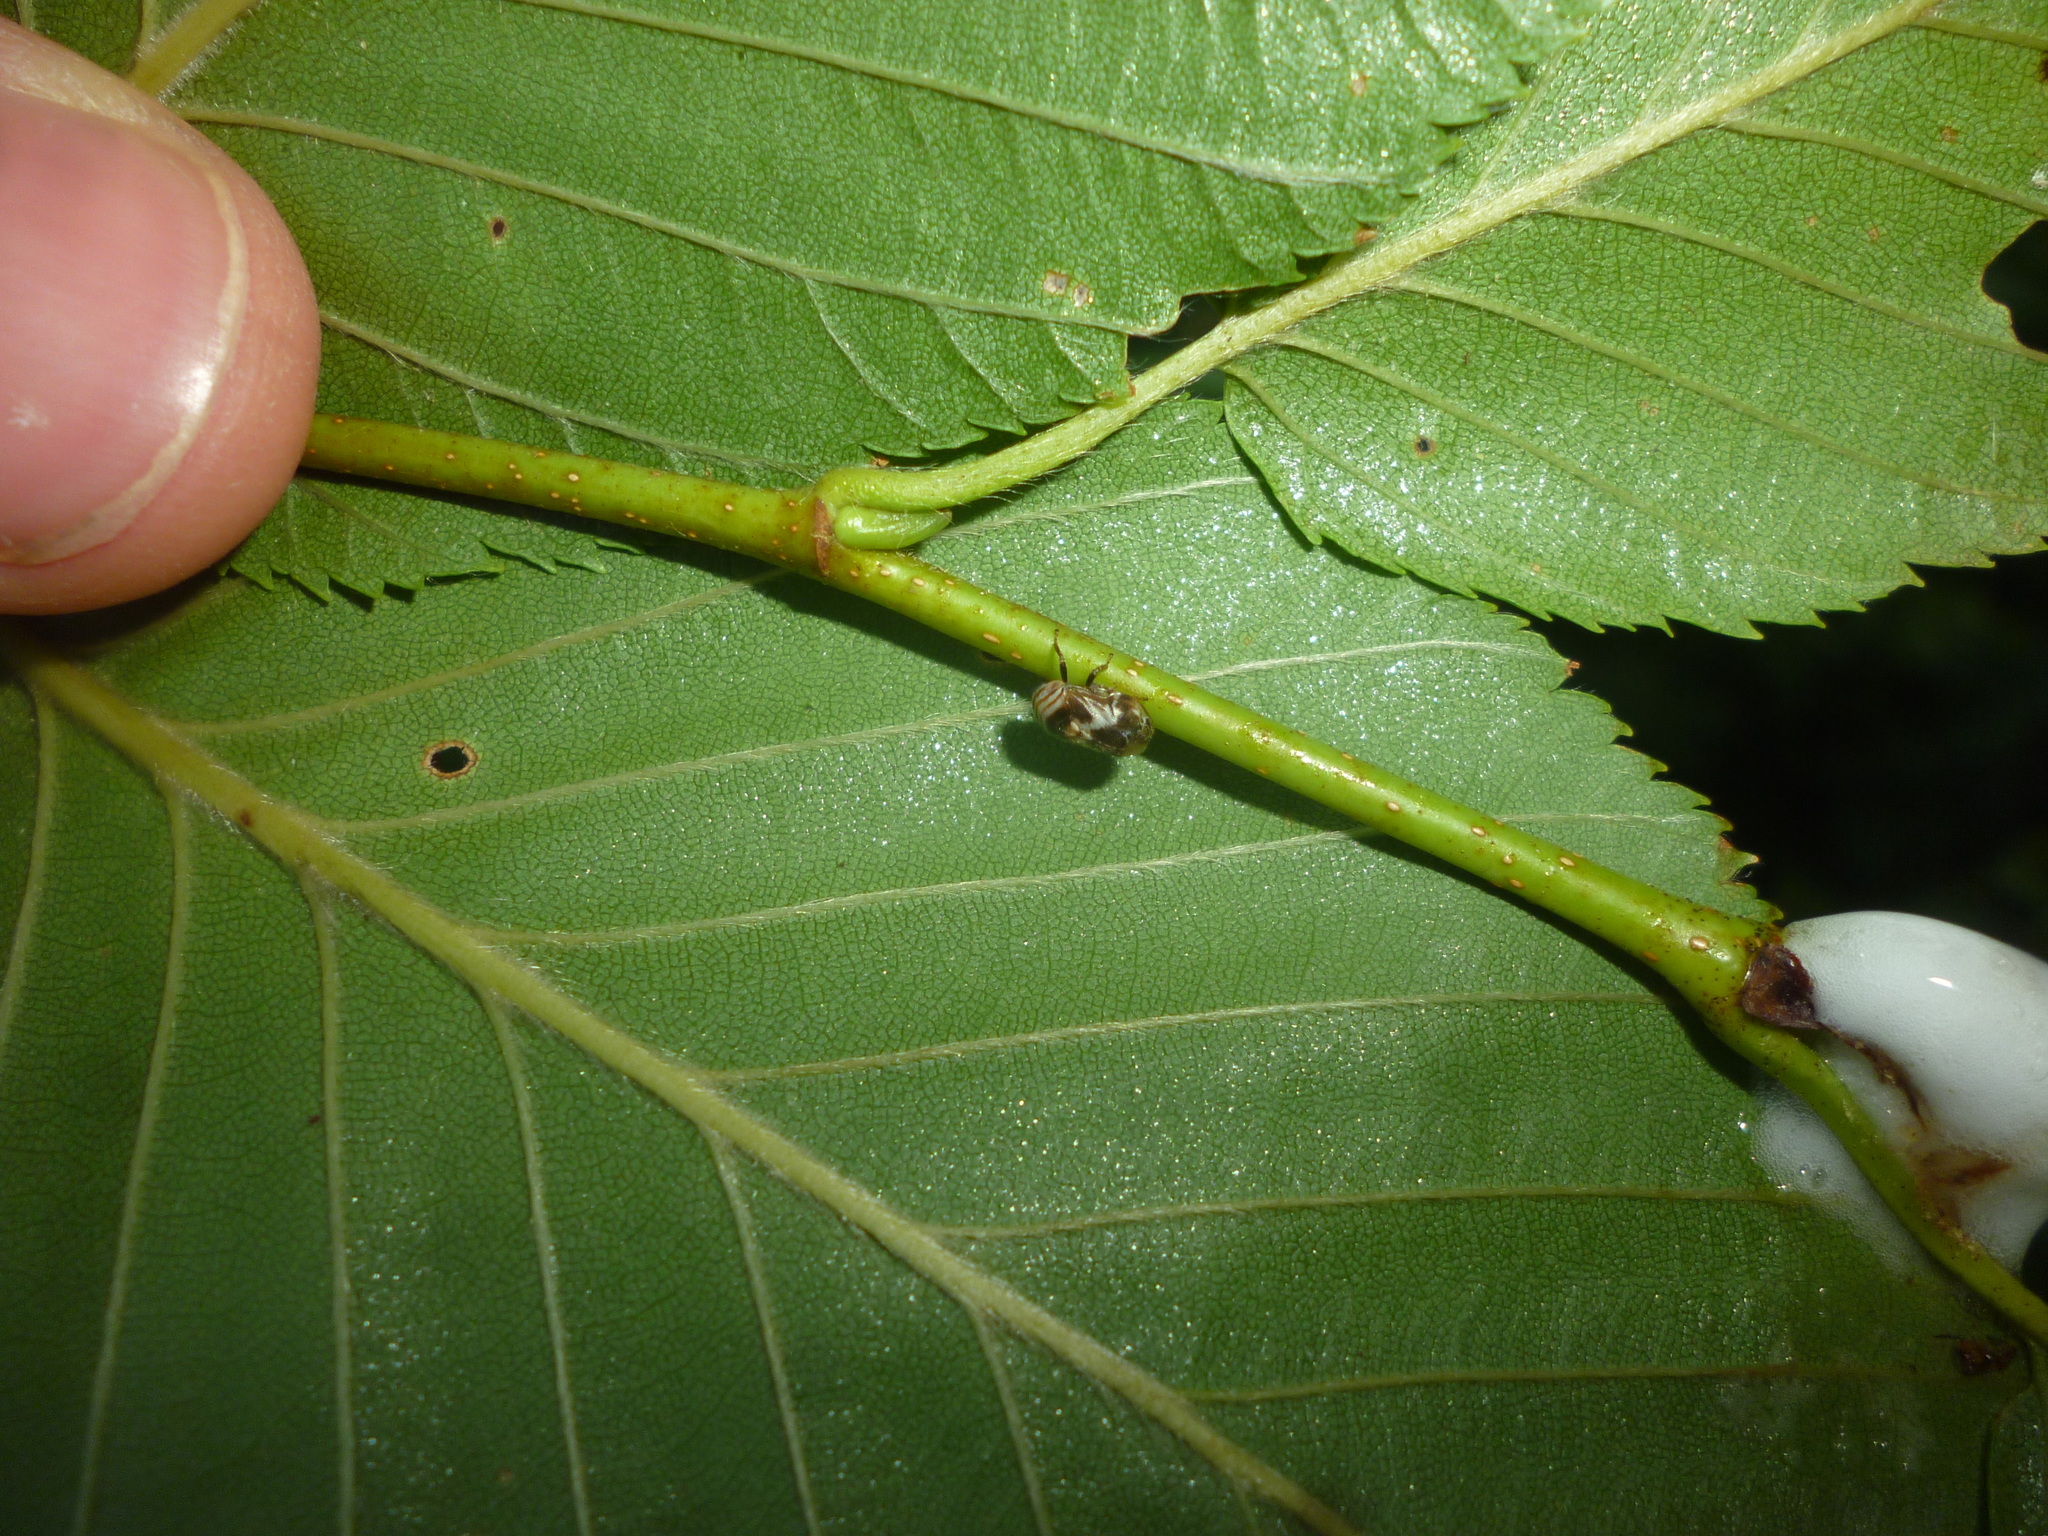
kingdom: Plantae
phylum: Tracheophyta
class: Magnoliopsida
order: Fagales
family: Betulaceae
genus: Betula
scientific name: Betula lenta
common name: Black birch
